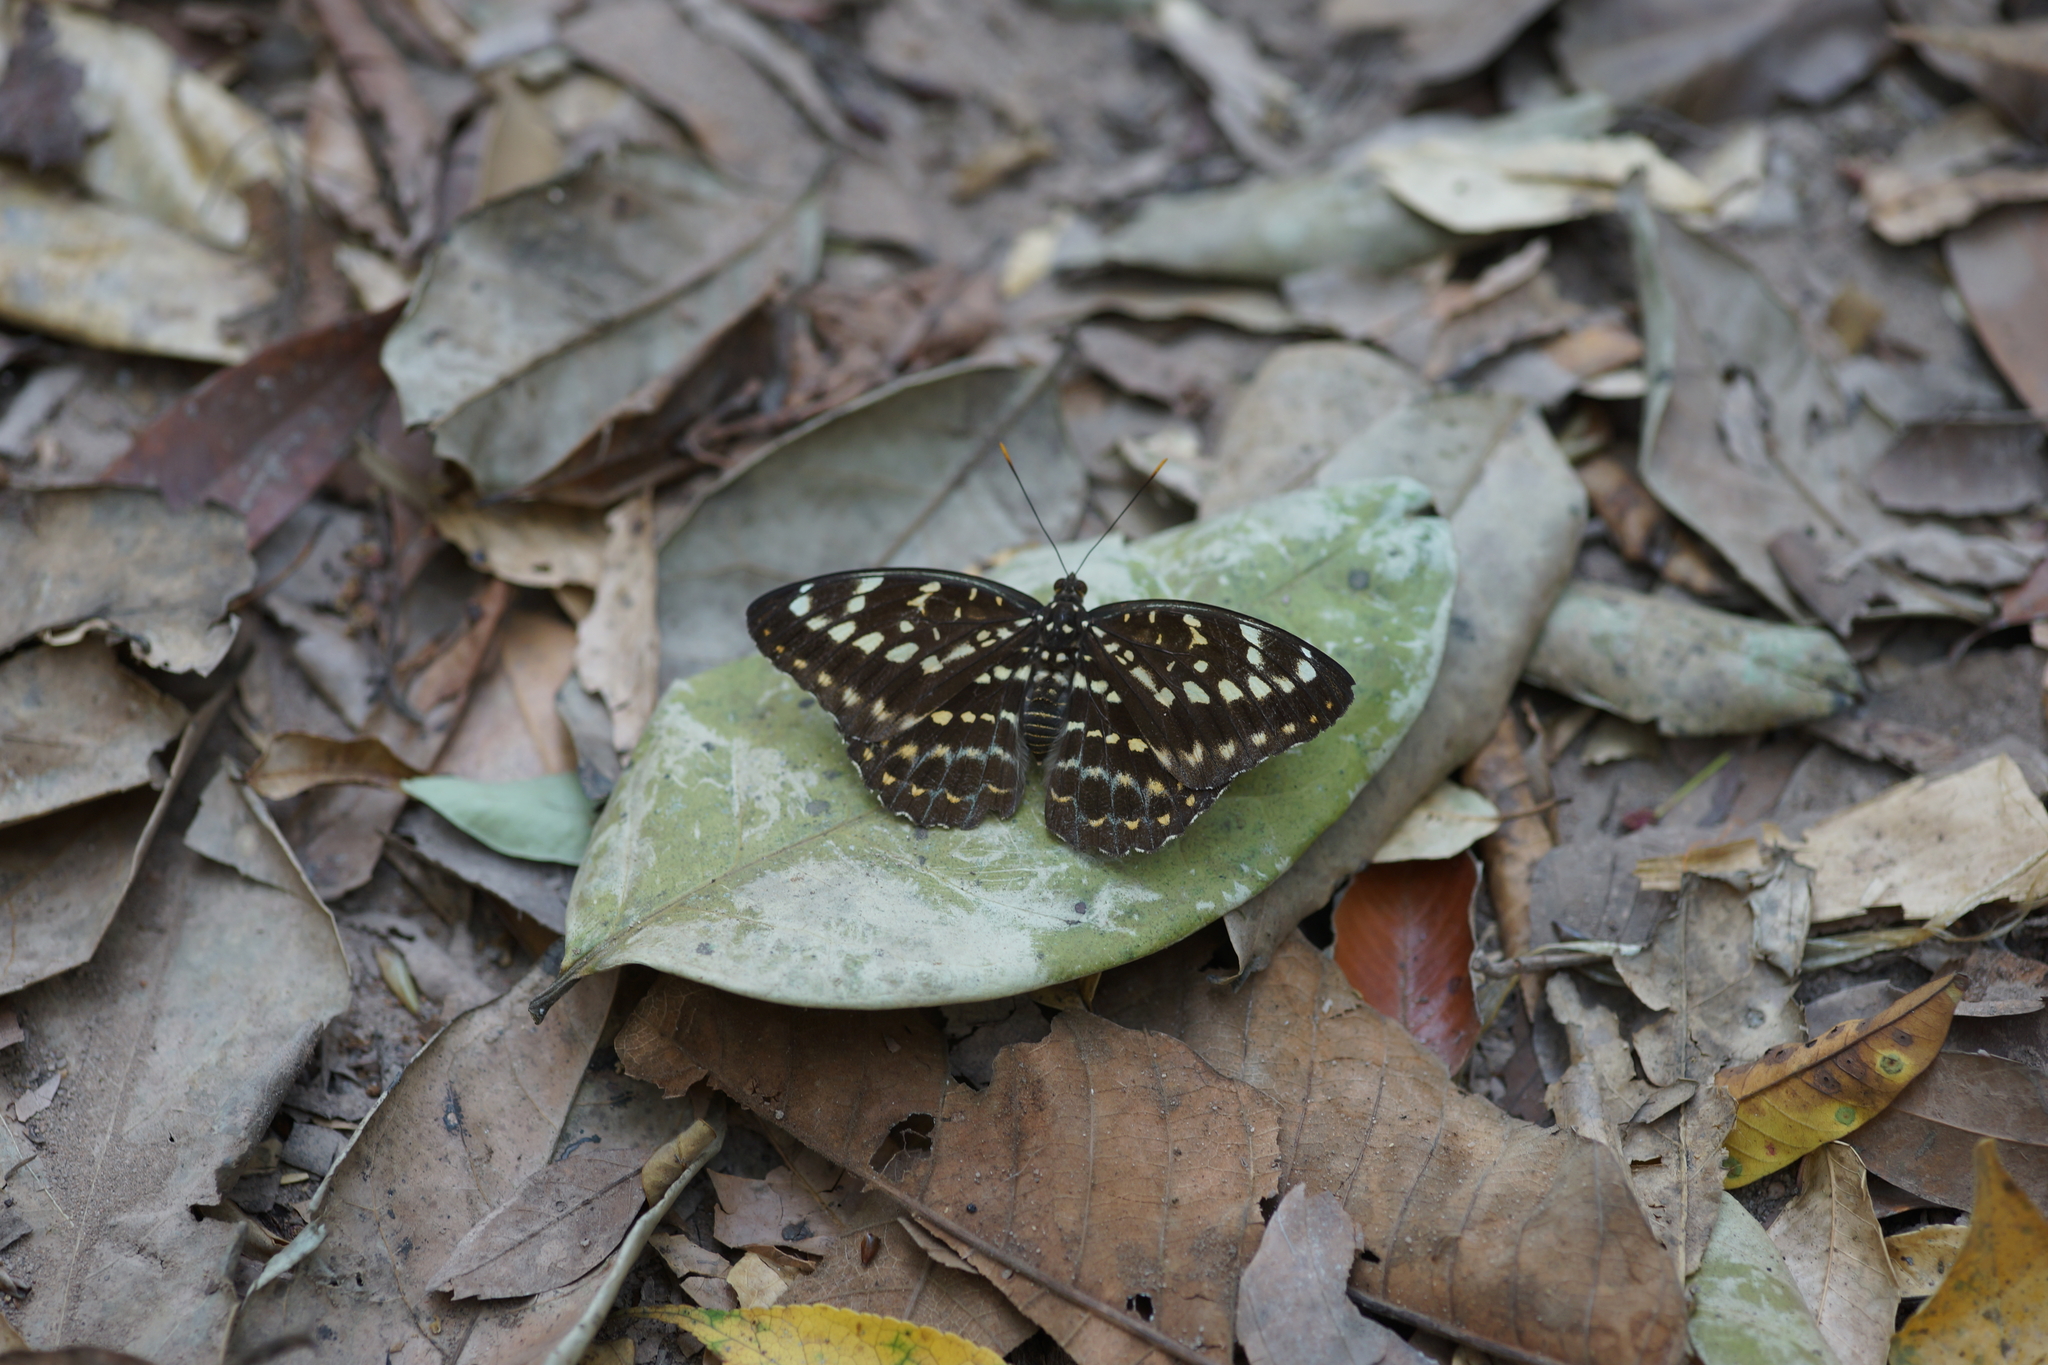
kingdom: Animalia
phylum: Arthropoda
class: Insecta
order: Lepidoptera
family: Nymphalidae
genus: Lexias
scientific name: Lexias pardalis
